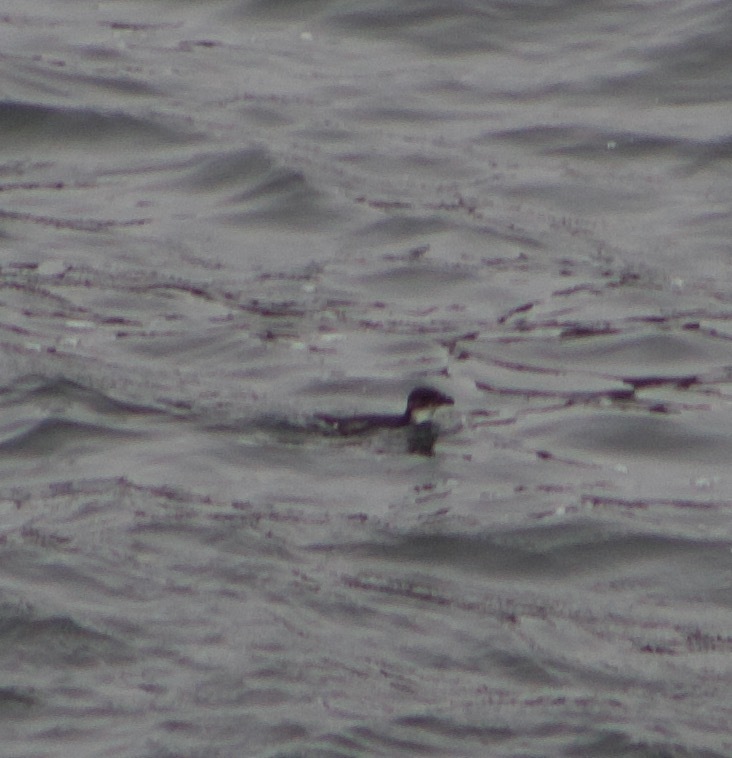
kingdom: Animalia
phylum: Chordata
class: Aves
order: Procellariiformes
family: Pelecanoididae
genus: Pelecanoides
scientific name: Pelecanoides garnotii
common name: Peruvian diving-petrel
